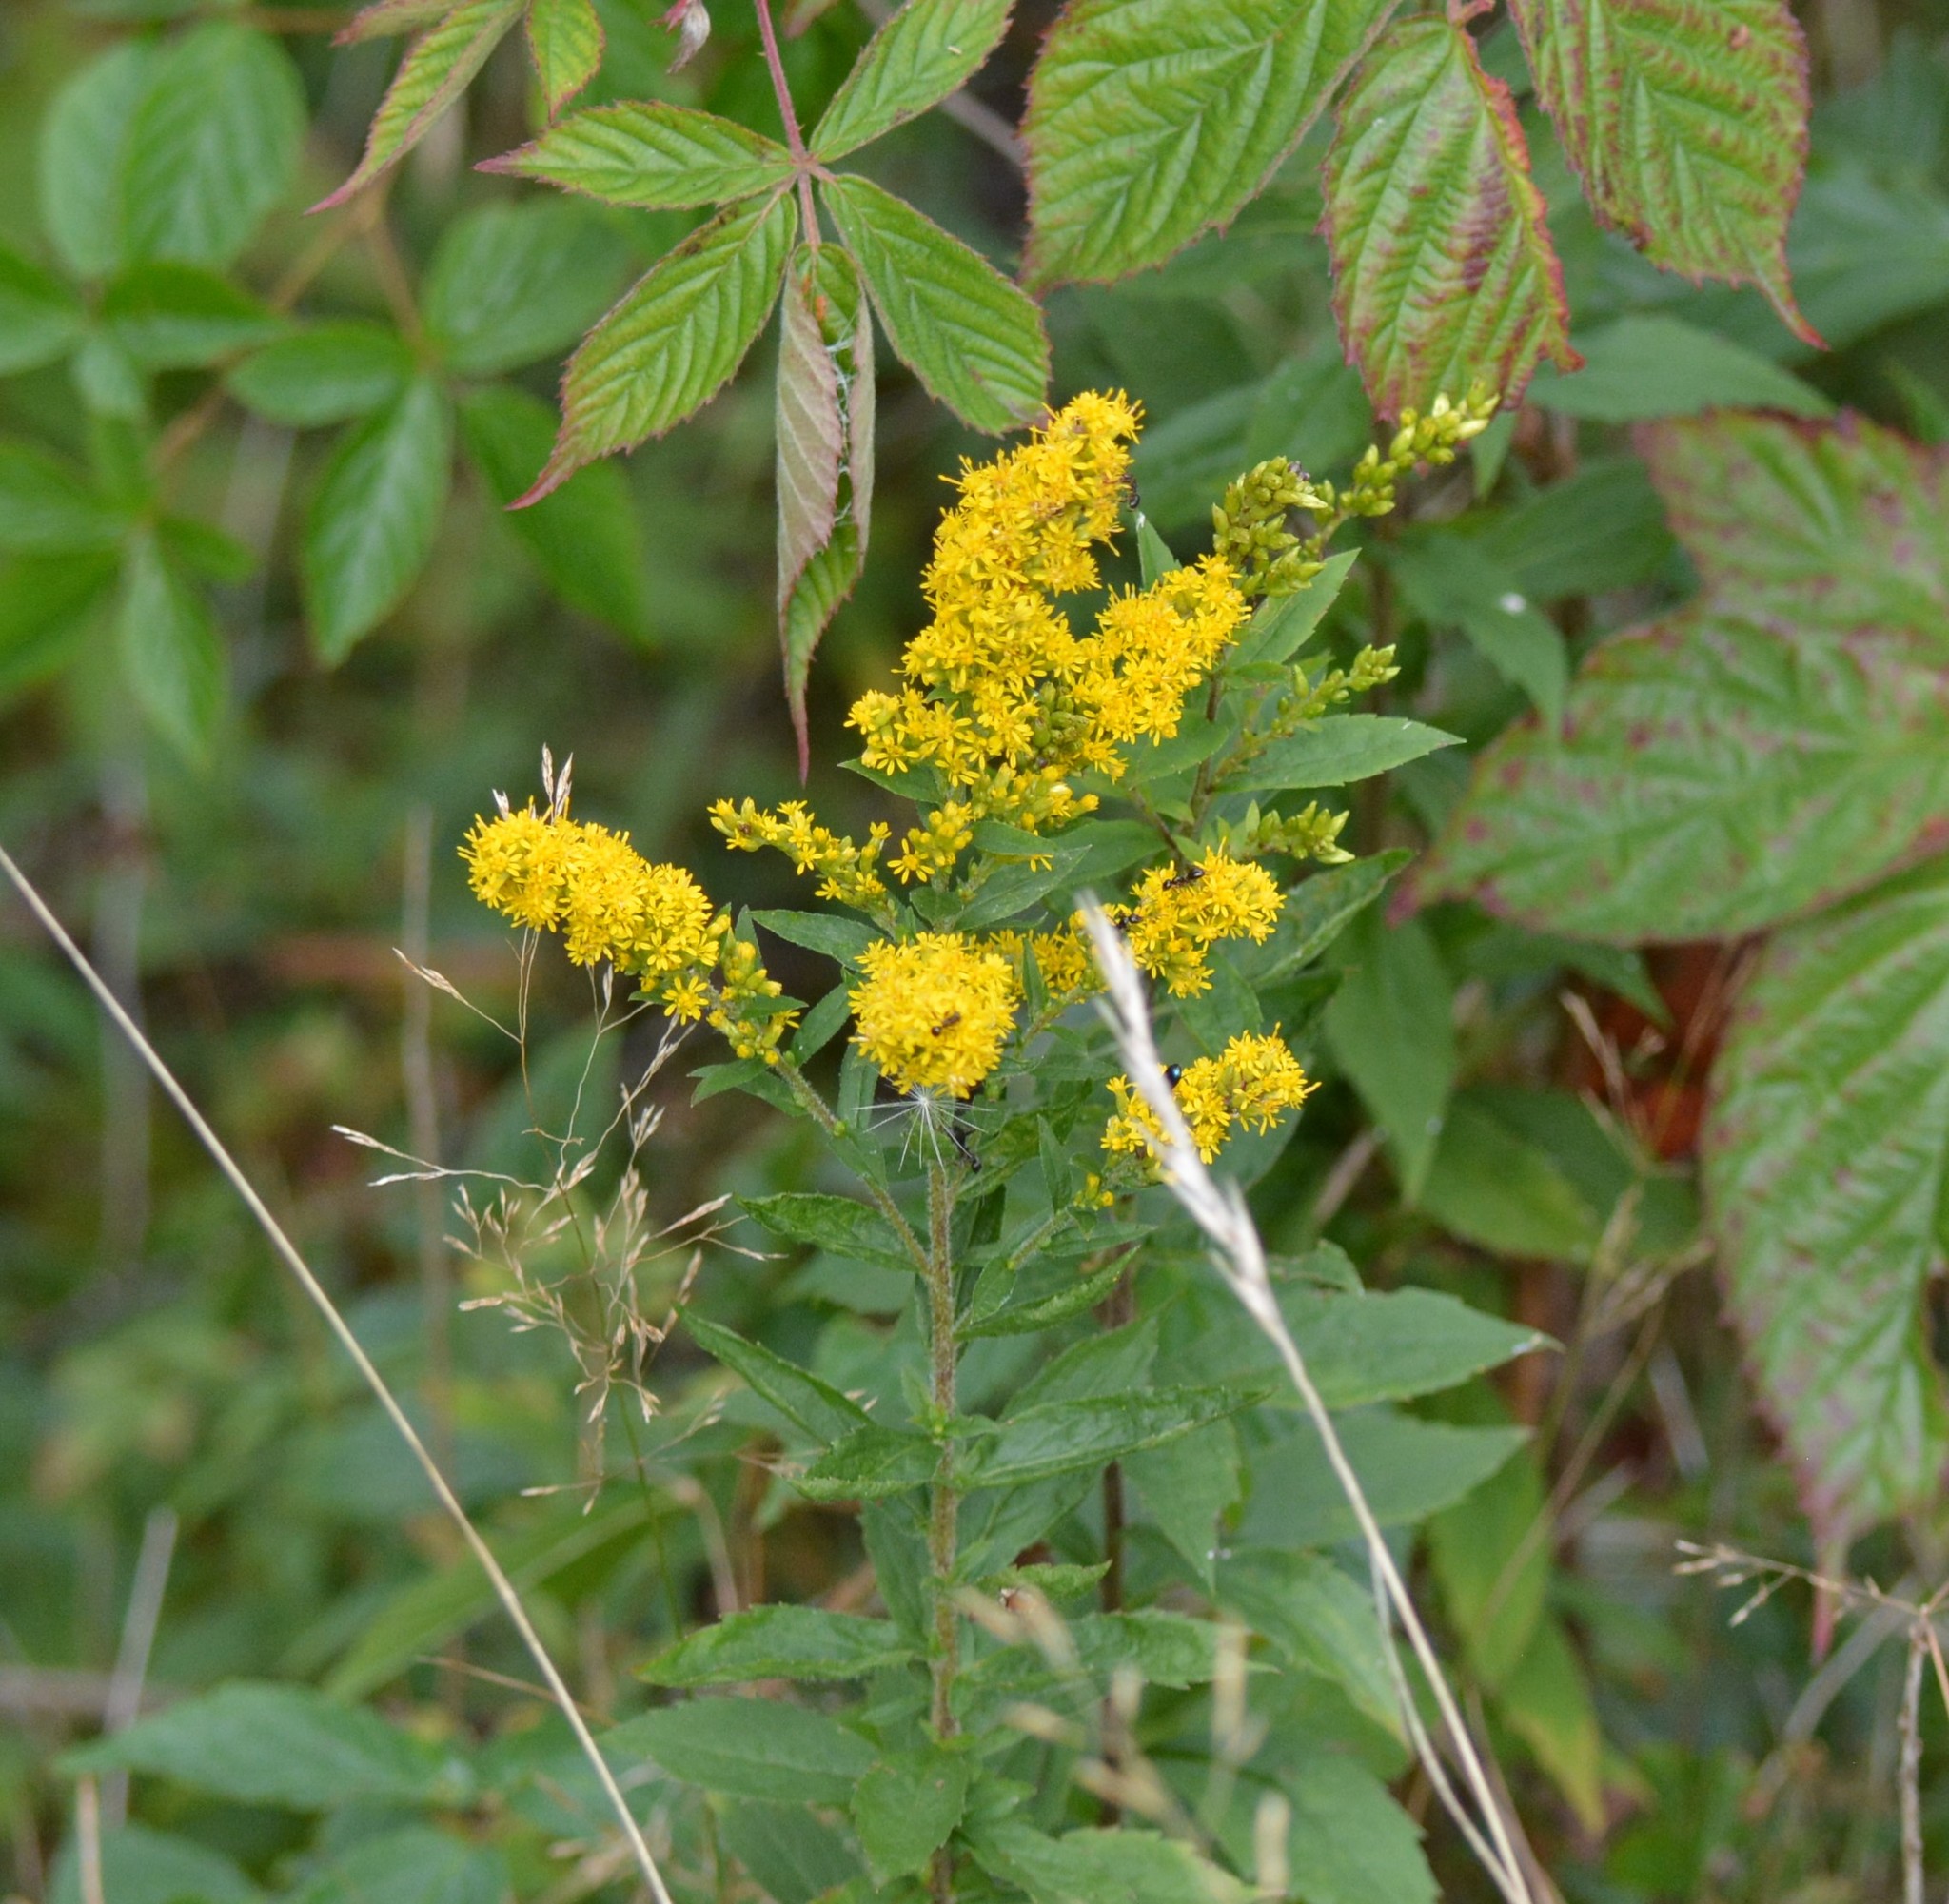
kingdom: Plantae
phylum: Tracheophyta
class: Magnoliopsida
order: Asterales
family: Asteraceae
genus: Solidago
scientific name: Solidago rugosa
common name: Rough-stemmed goldenrod
